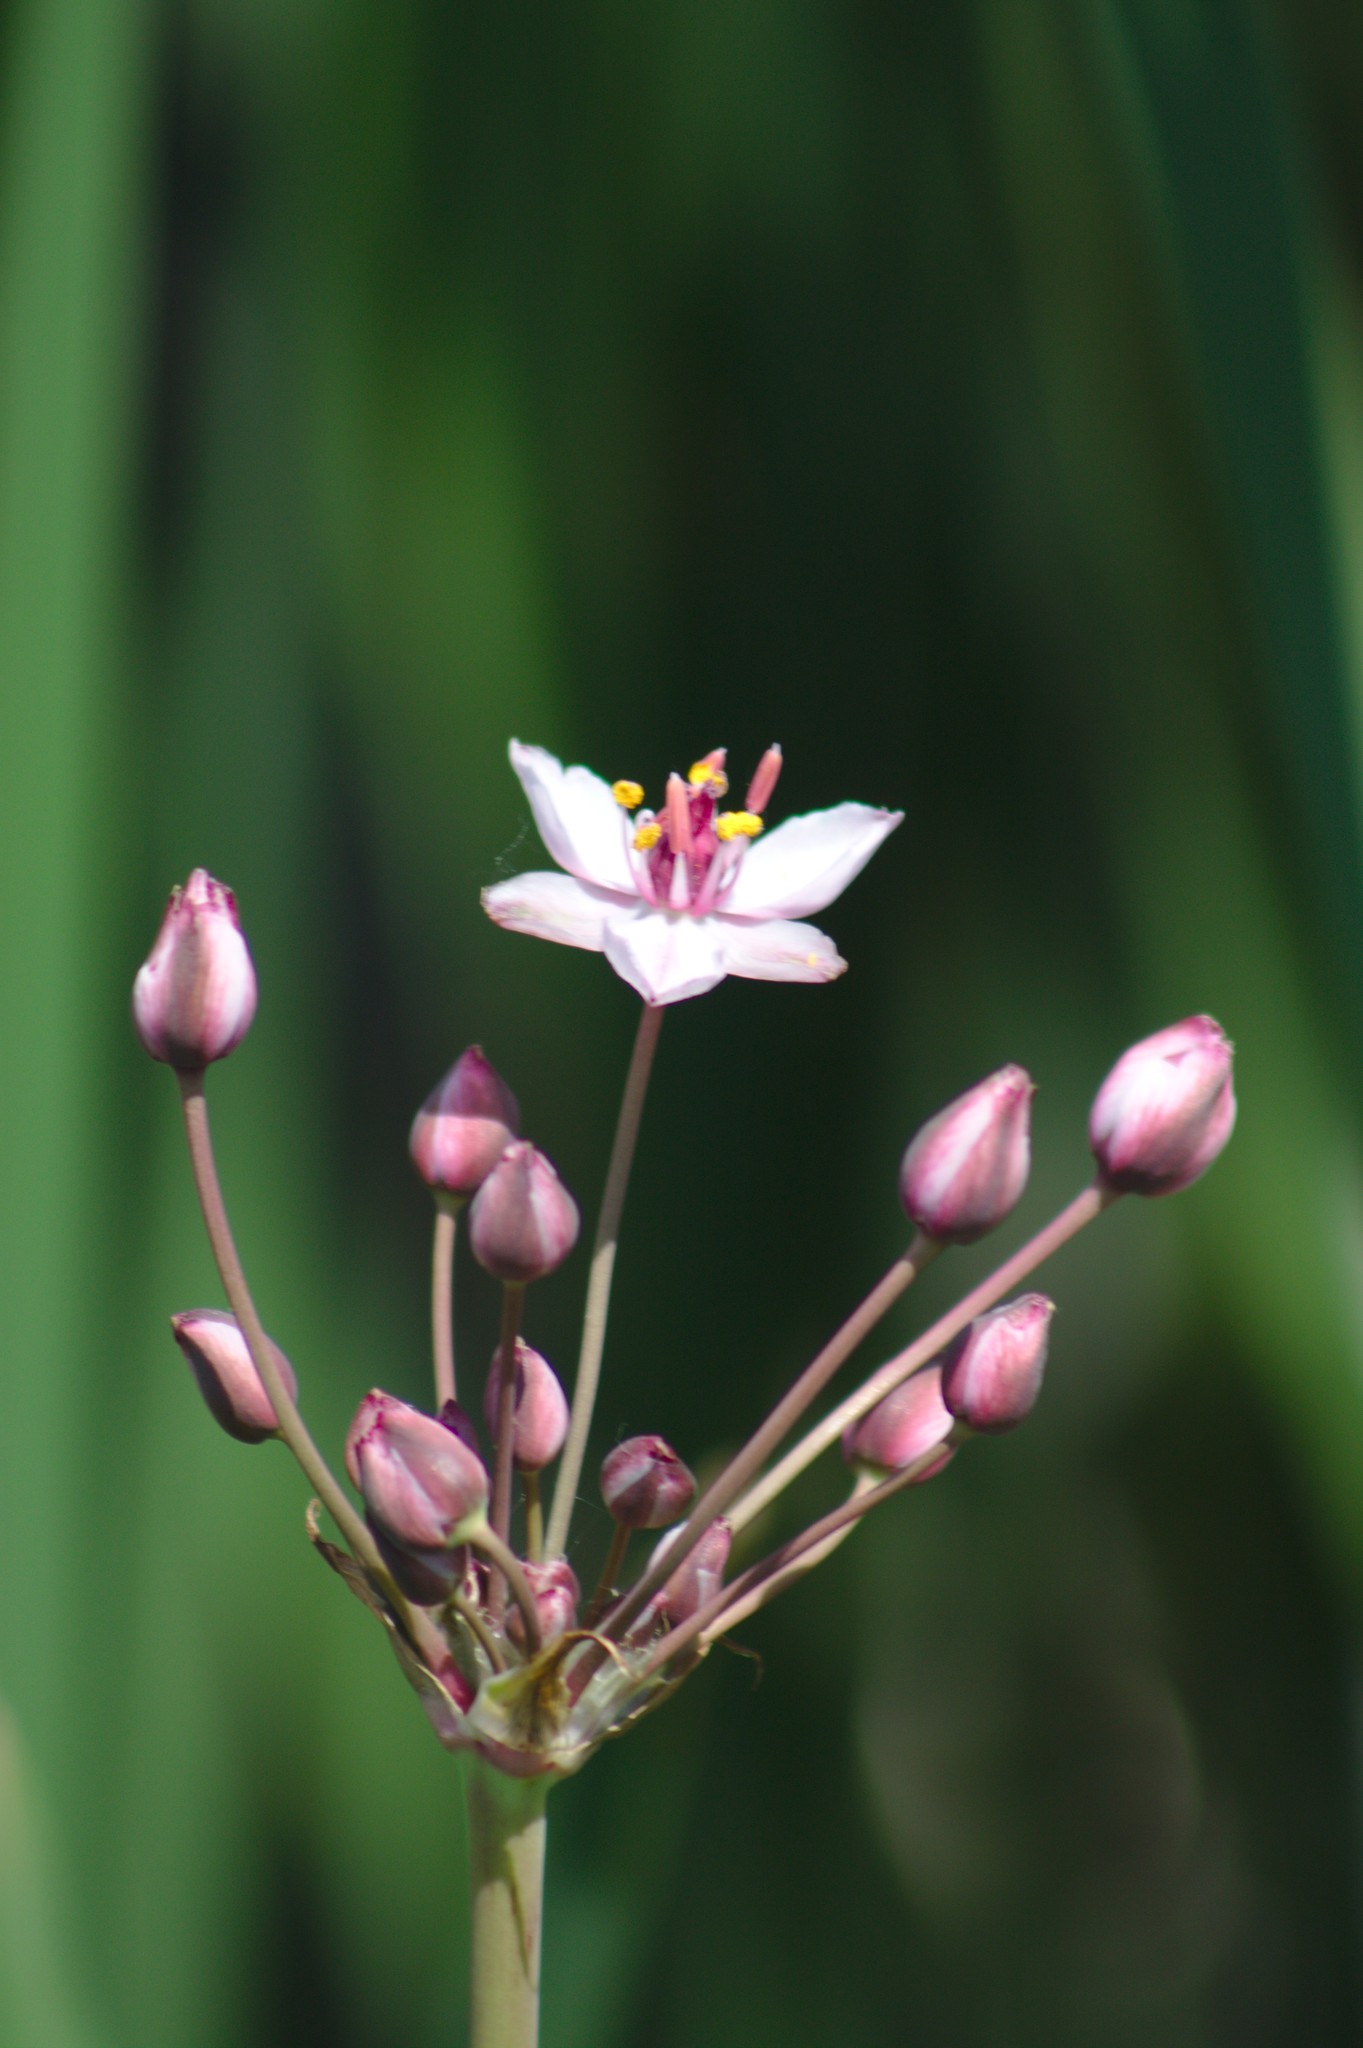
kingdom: Plantae
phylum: Tracheophyta
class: Liliopsida
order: Alismatales
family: Butomaceae
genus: Butomus
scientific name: Butomus umbellatus
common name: Flowering-rush
